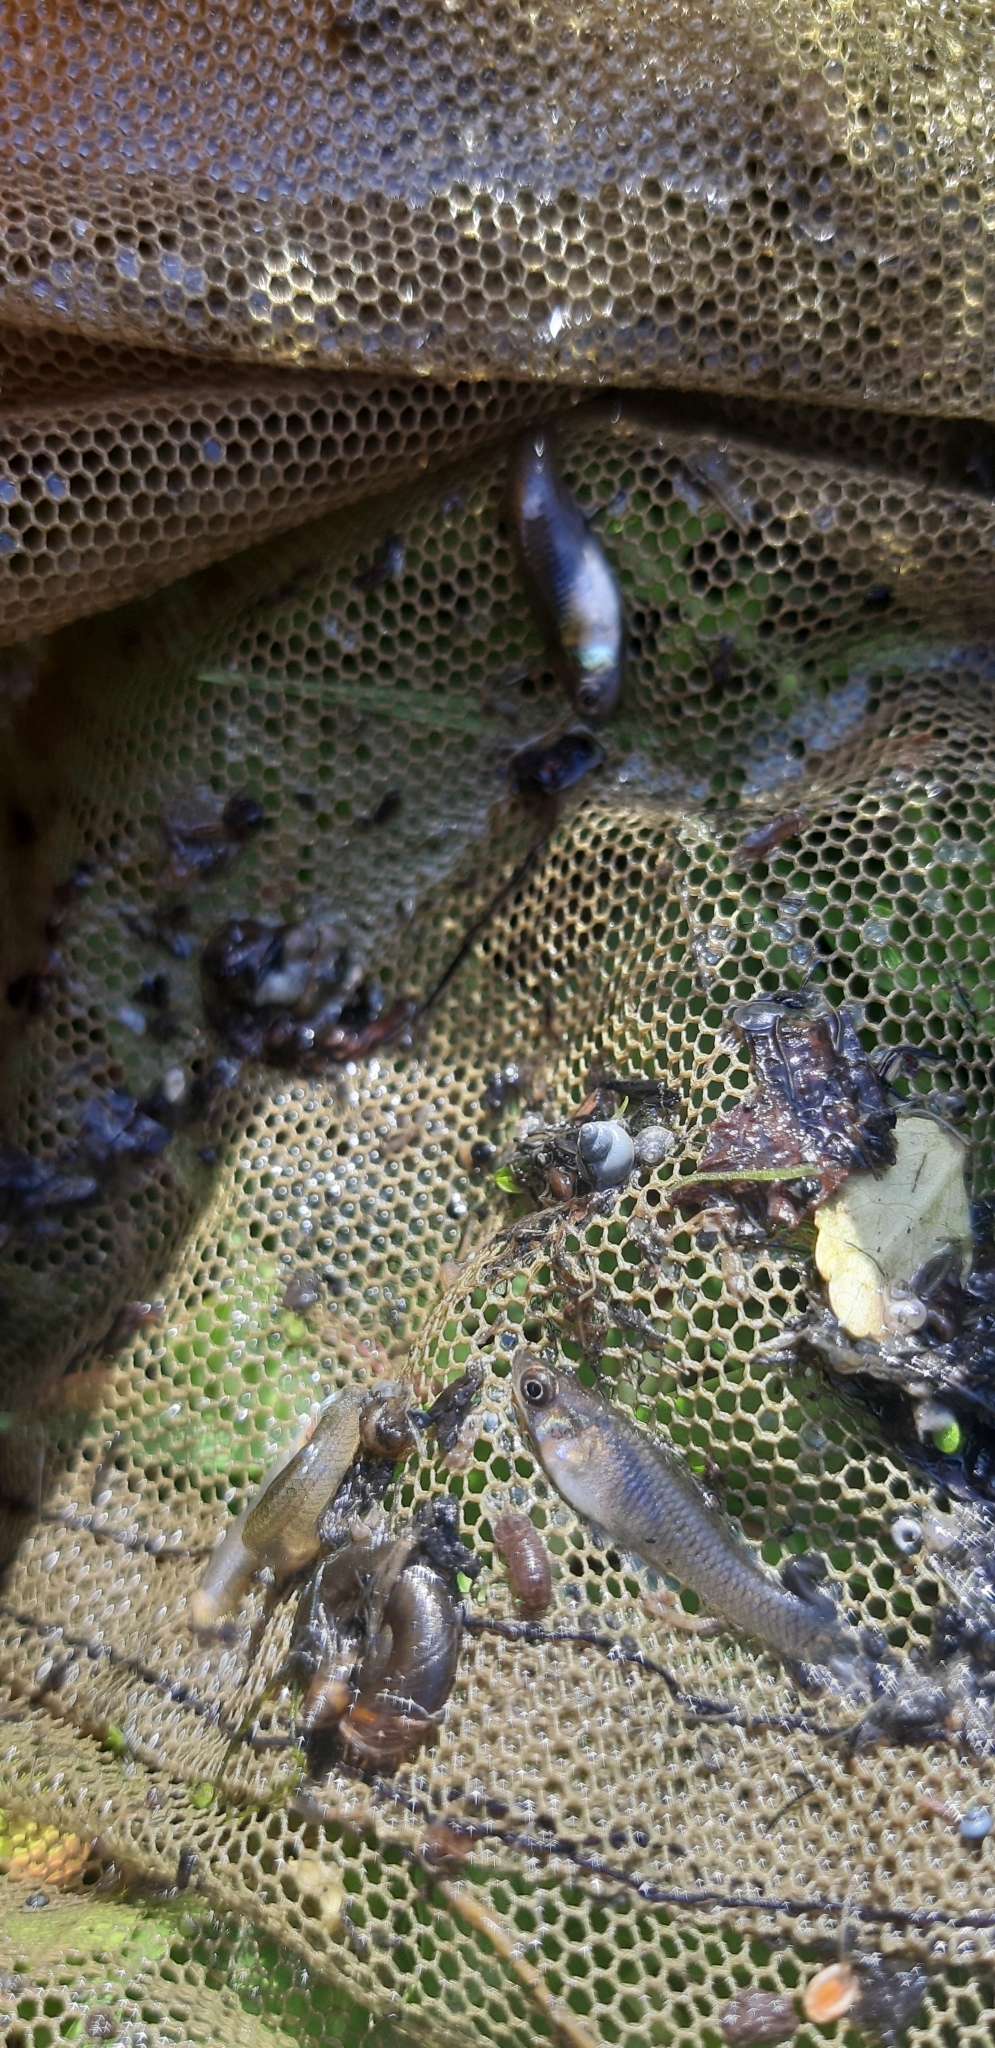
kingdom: Animalia
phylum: Chordata
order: Cyprinodontiformes
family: Poeciliidae
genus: Gambusia
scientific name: Gambusia holbrooki
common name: Eastern mosquitofish
